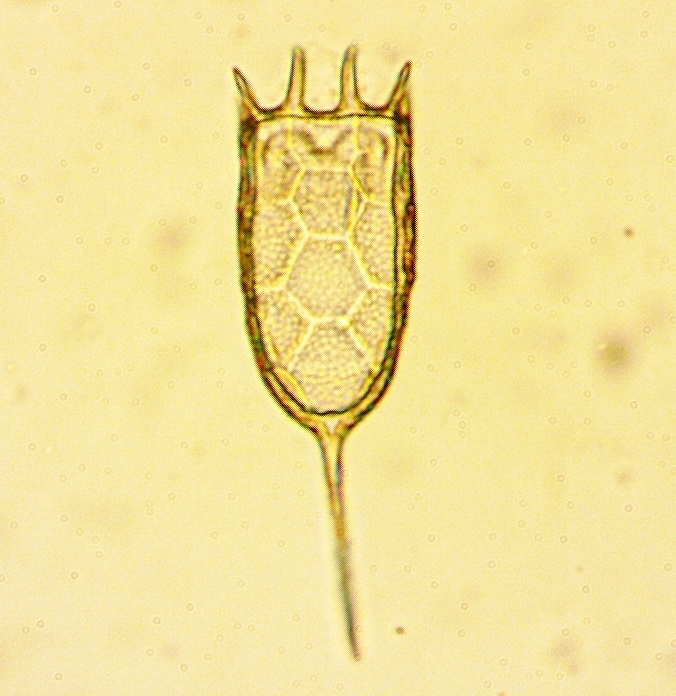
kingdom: Animalia
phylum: Rotifera
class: Eurotatoria
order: Ploima
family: Brachionidae
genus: Keratella
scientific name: Keratella americana
